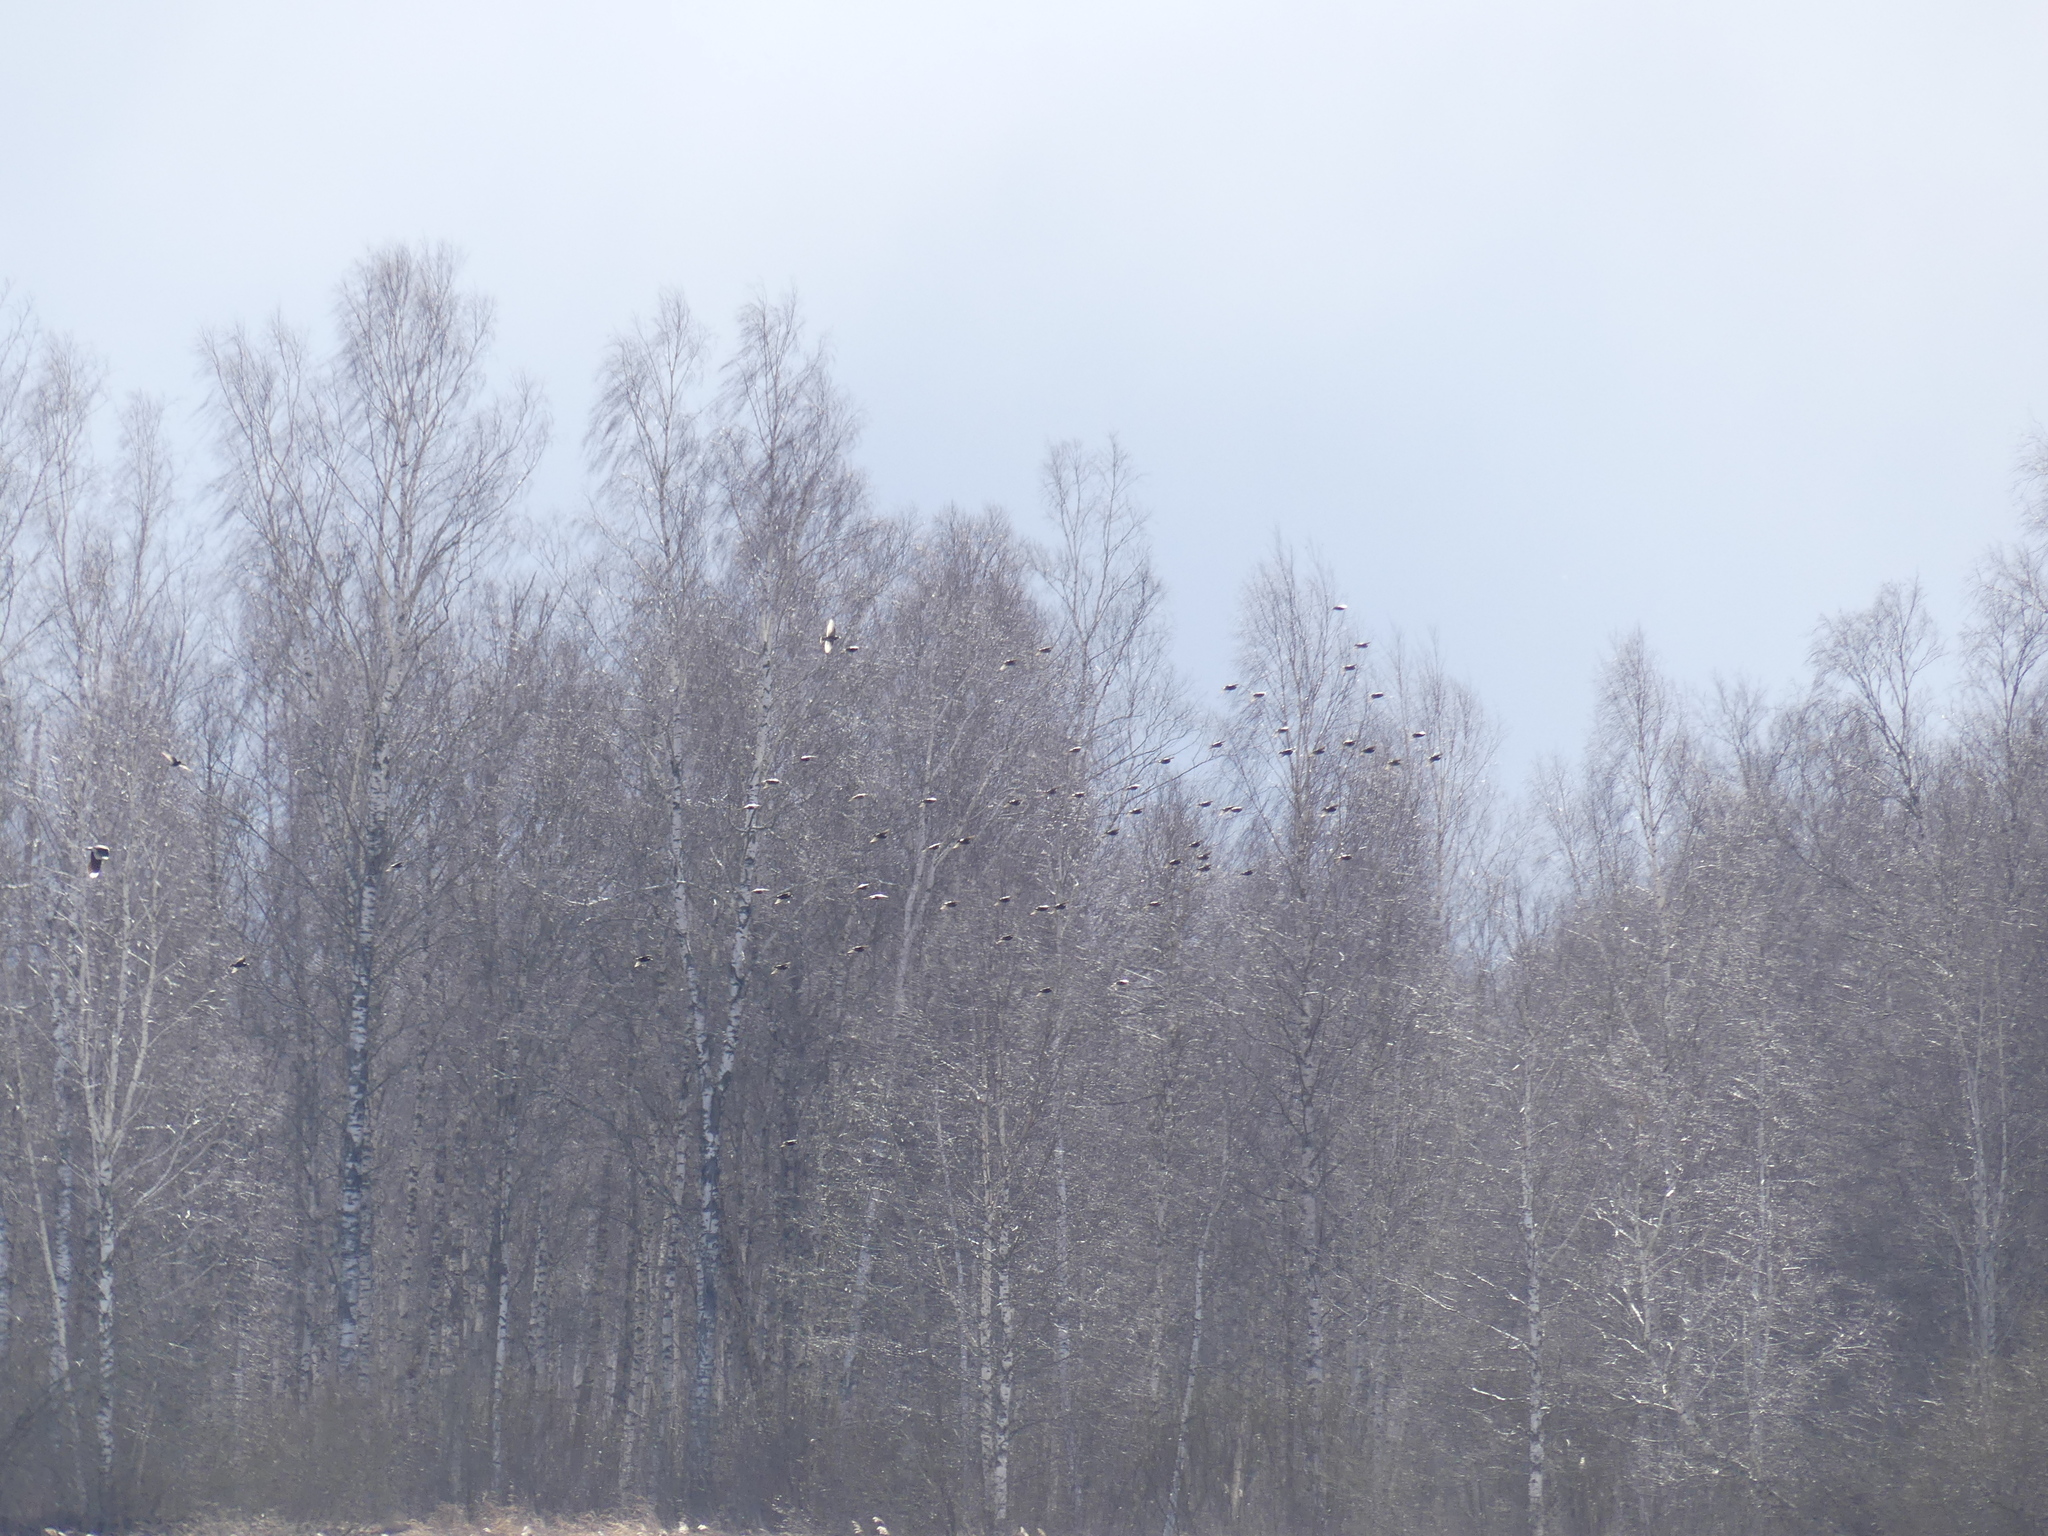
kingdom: Animalia
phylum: Chordata
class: Aves
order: Passeriformes
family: Sturnidae
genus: Sturnus
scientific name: Sturnus vulgaris
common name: Common starling
